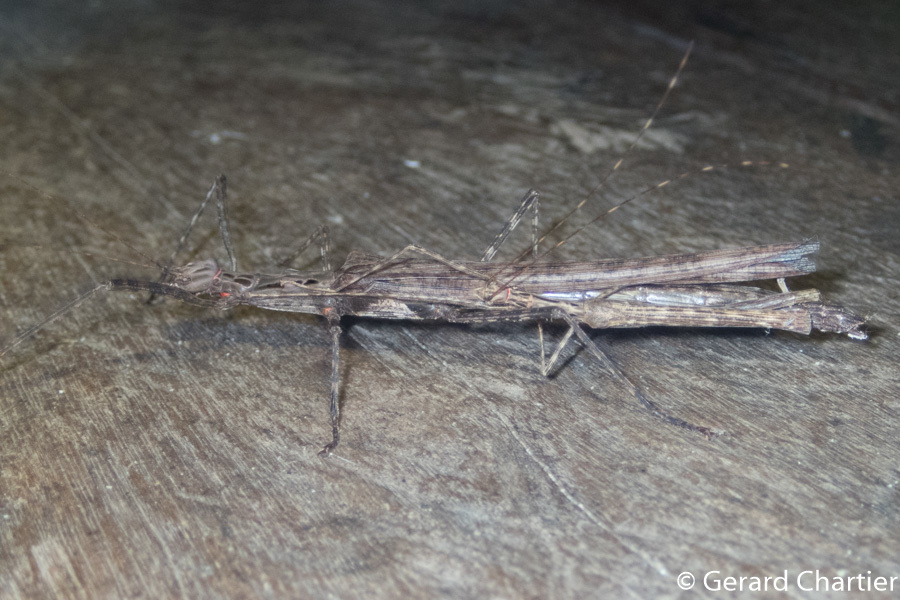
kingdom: Animalia
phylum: Arthropoda
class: Insecta
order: Phasmida
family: Lonchodidae
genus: Trachythorax
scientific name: Trachythorax maculicollis
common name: Oleander stick-insect
